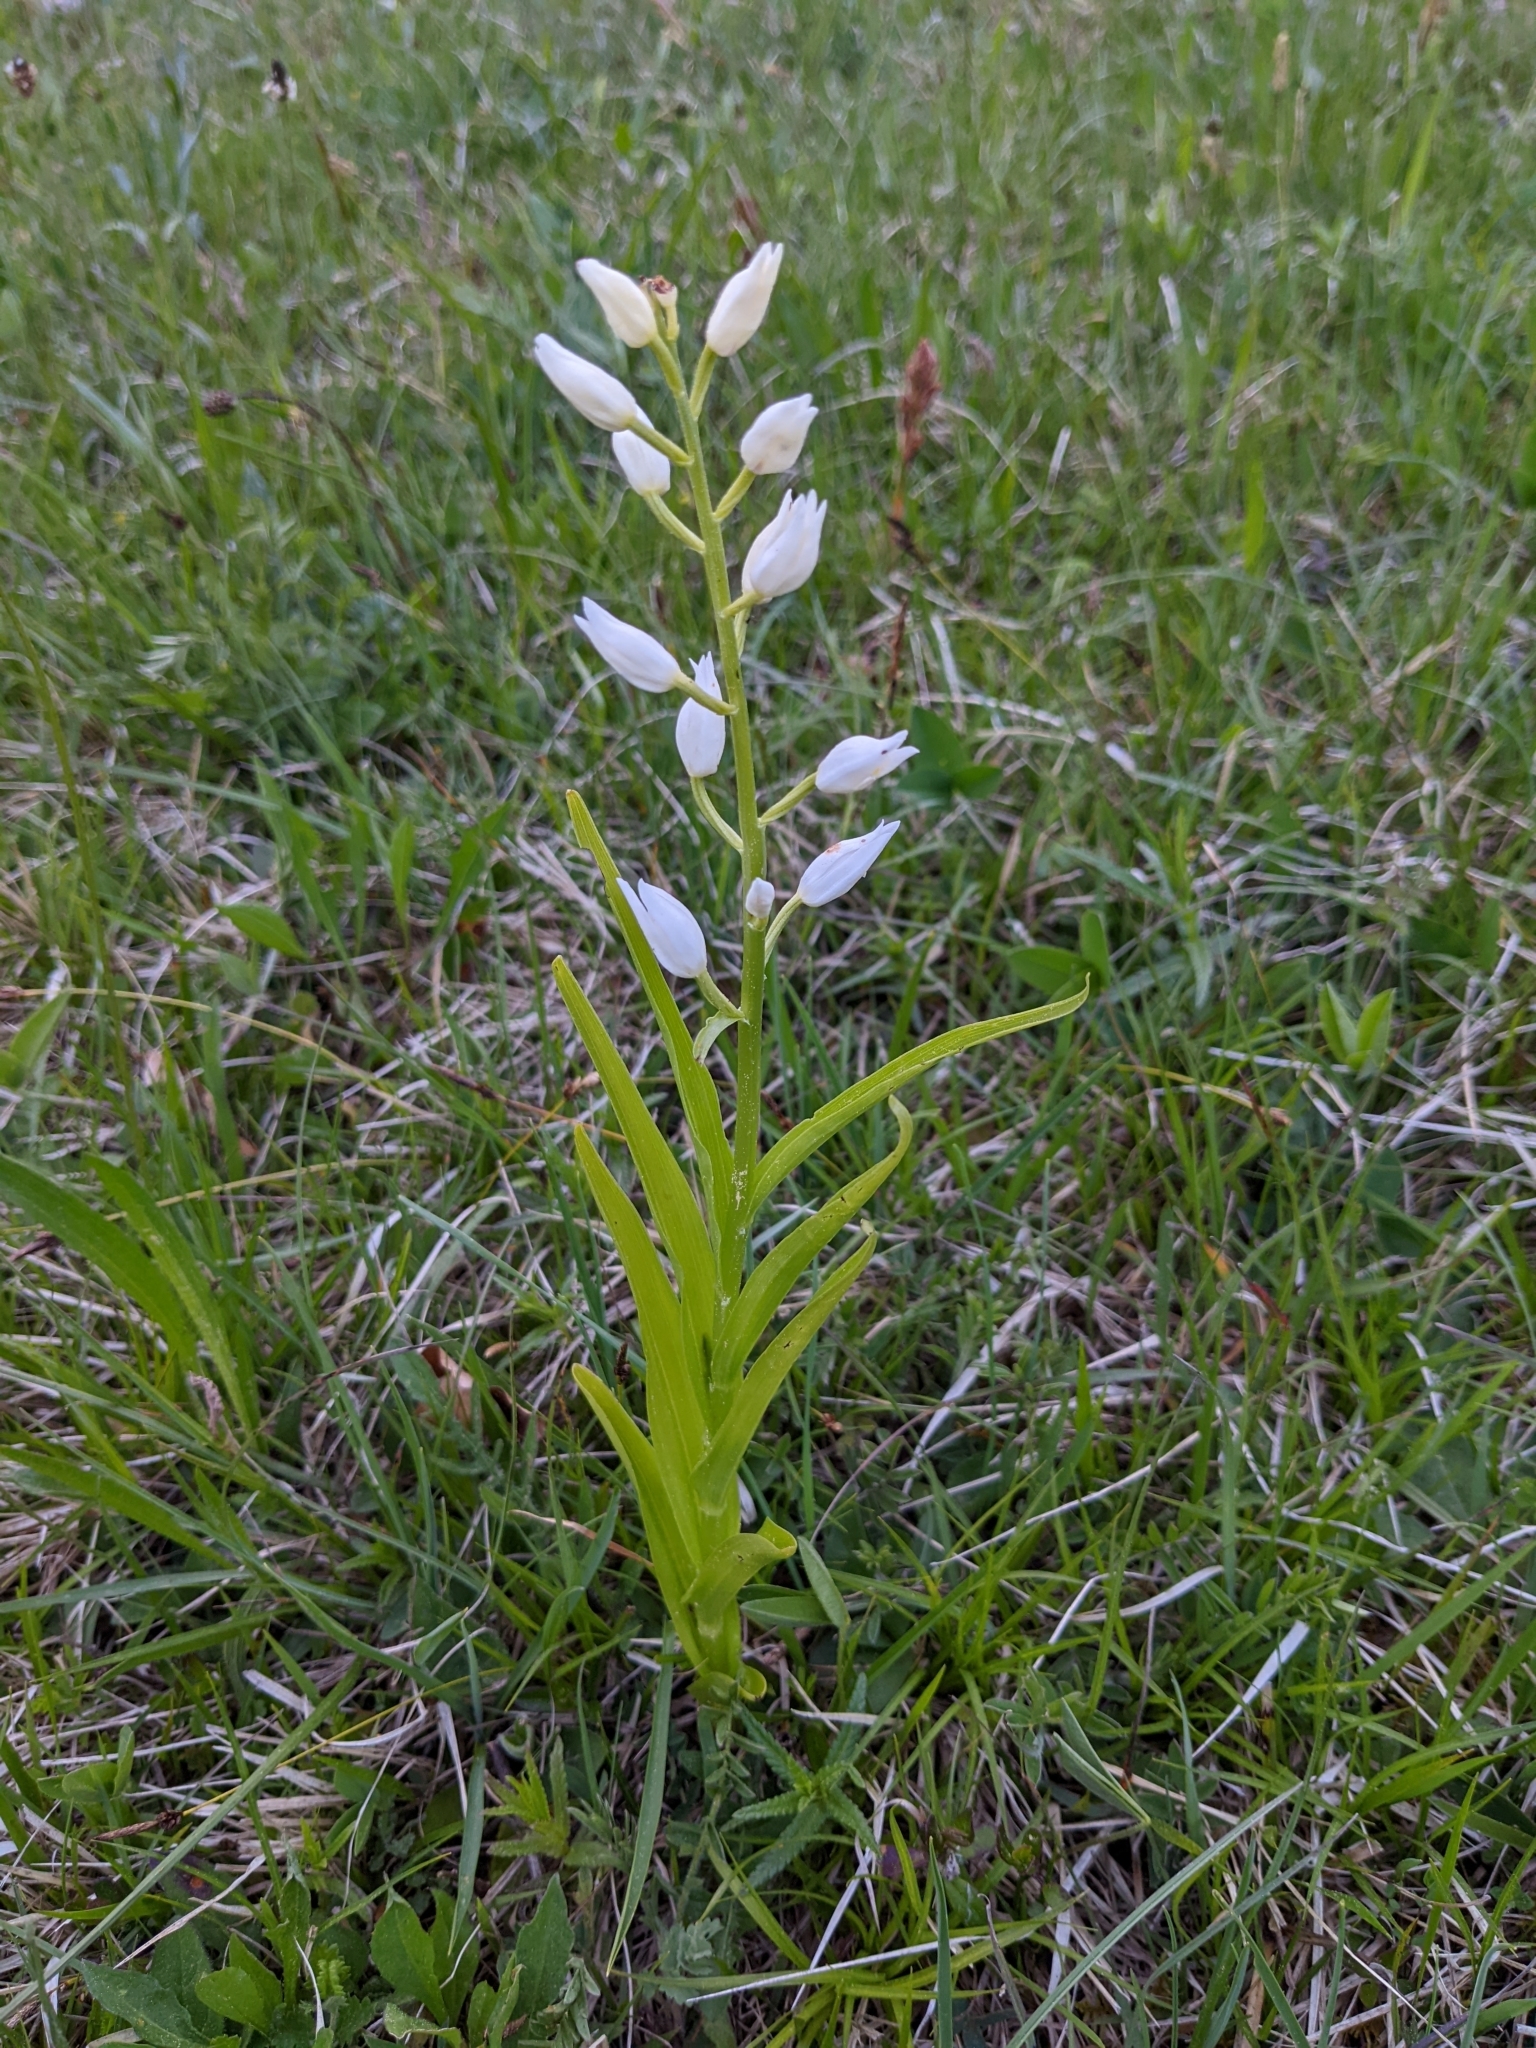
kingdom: Plantae
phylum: Tracheophyta
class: Liliopsida
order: Asparagales
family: Orchidaceae
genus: Cephalanthera
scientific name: Cephalanthera longifolia
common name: Narrow-leaved helleborine
